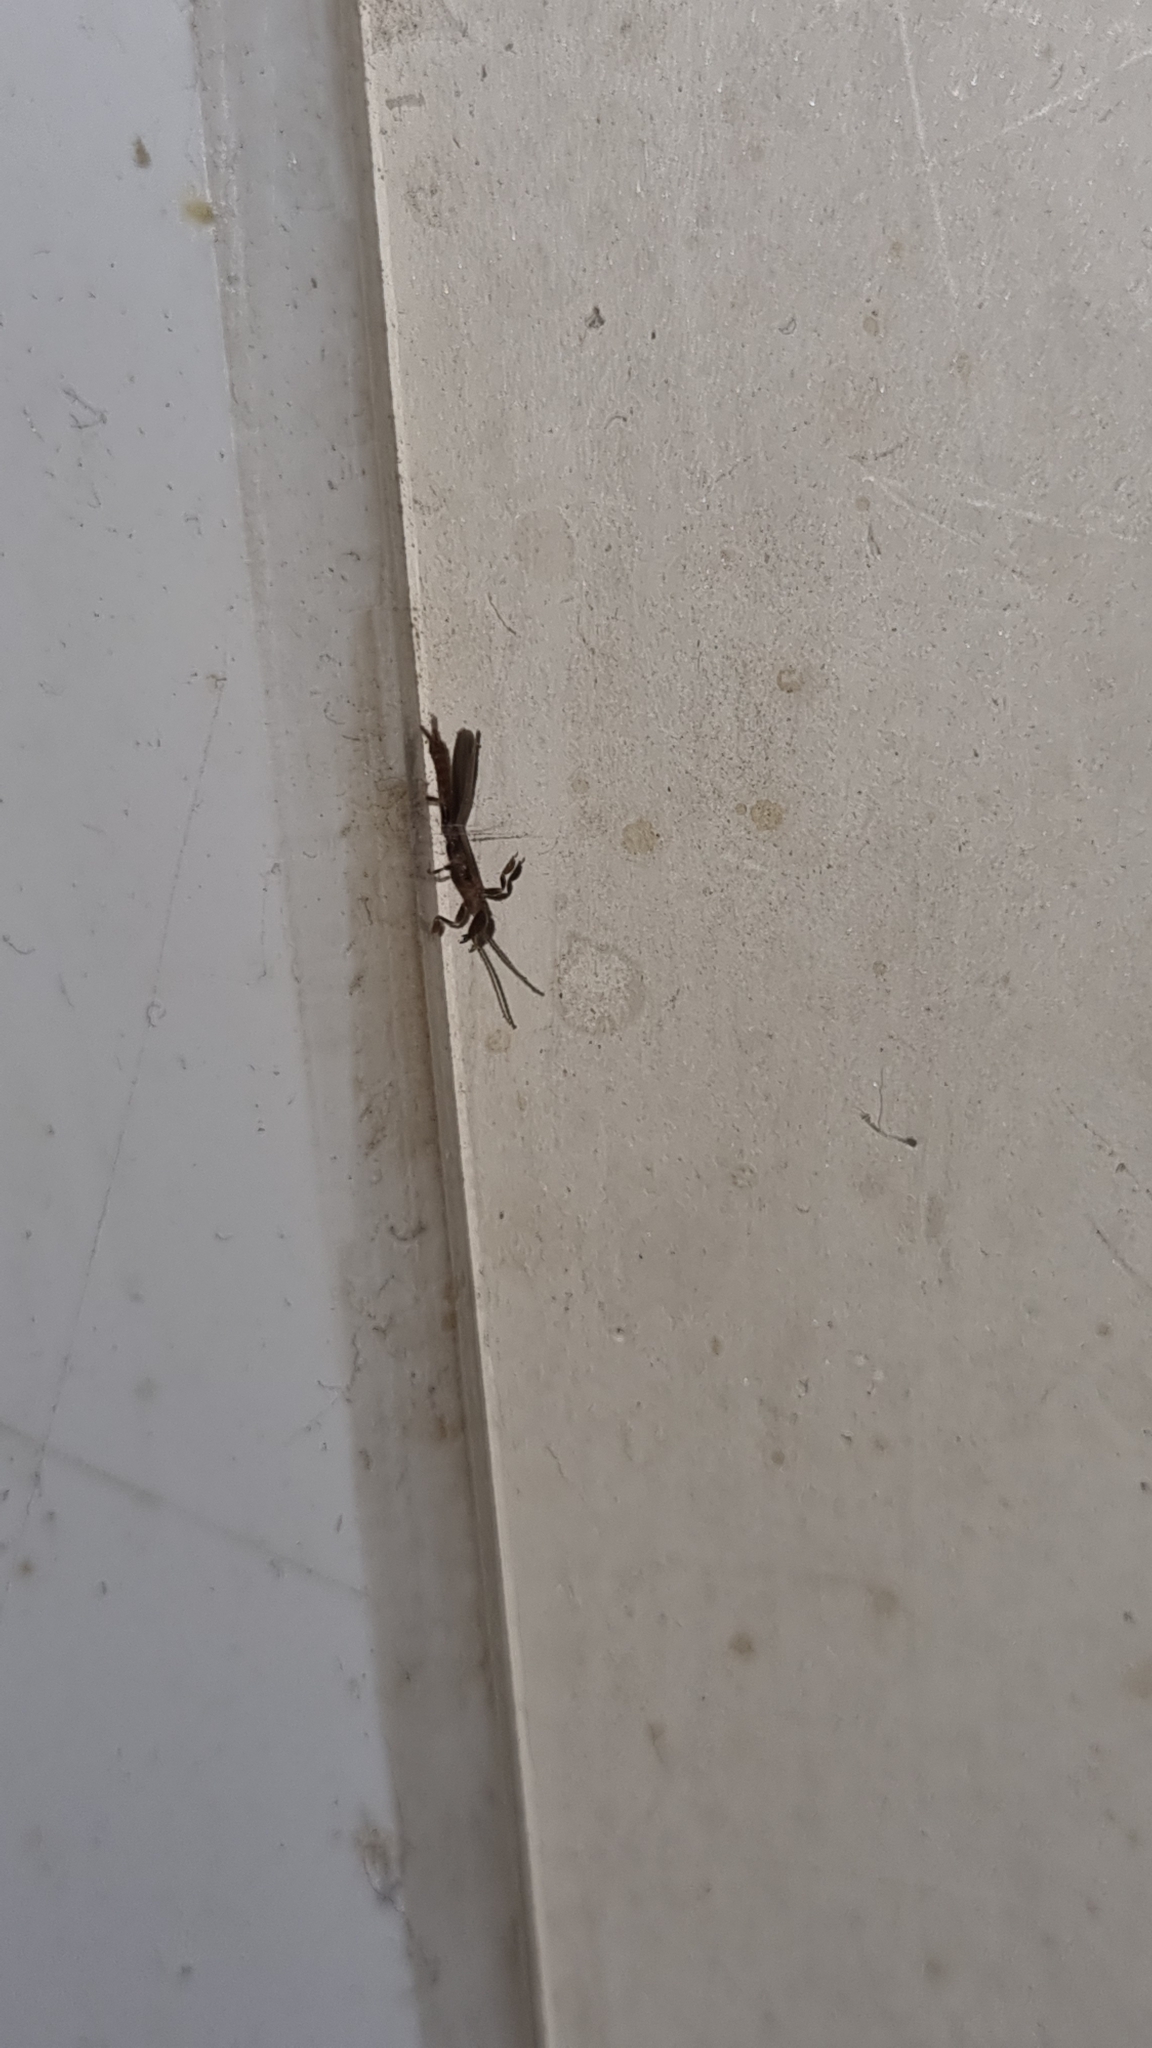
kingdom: Animalia
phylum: Arthropoda
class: Insecta
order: Embioptera
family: Oligotomidae
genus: Oligotoma
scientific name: Oligotoma nigra
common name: Black webspinner
